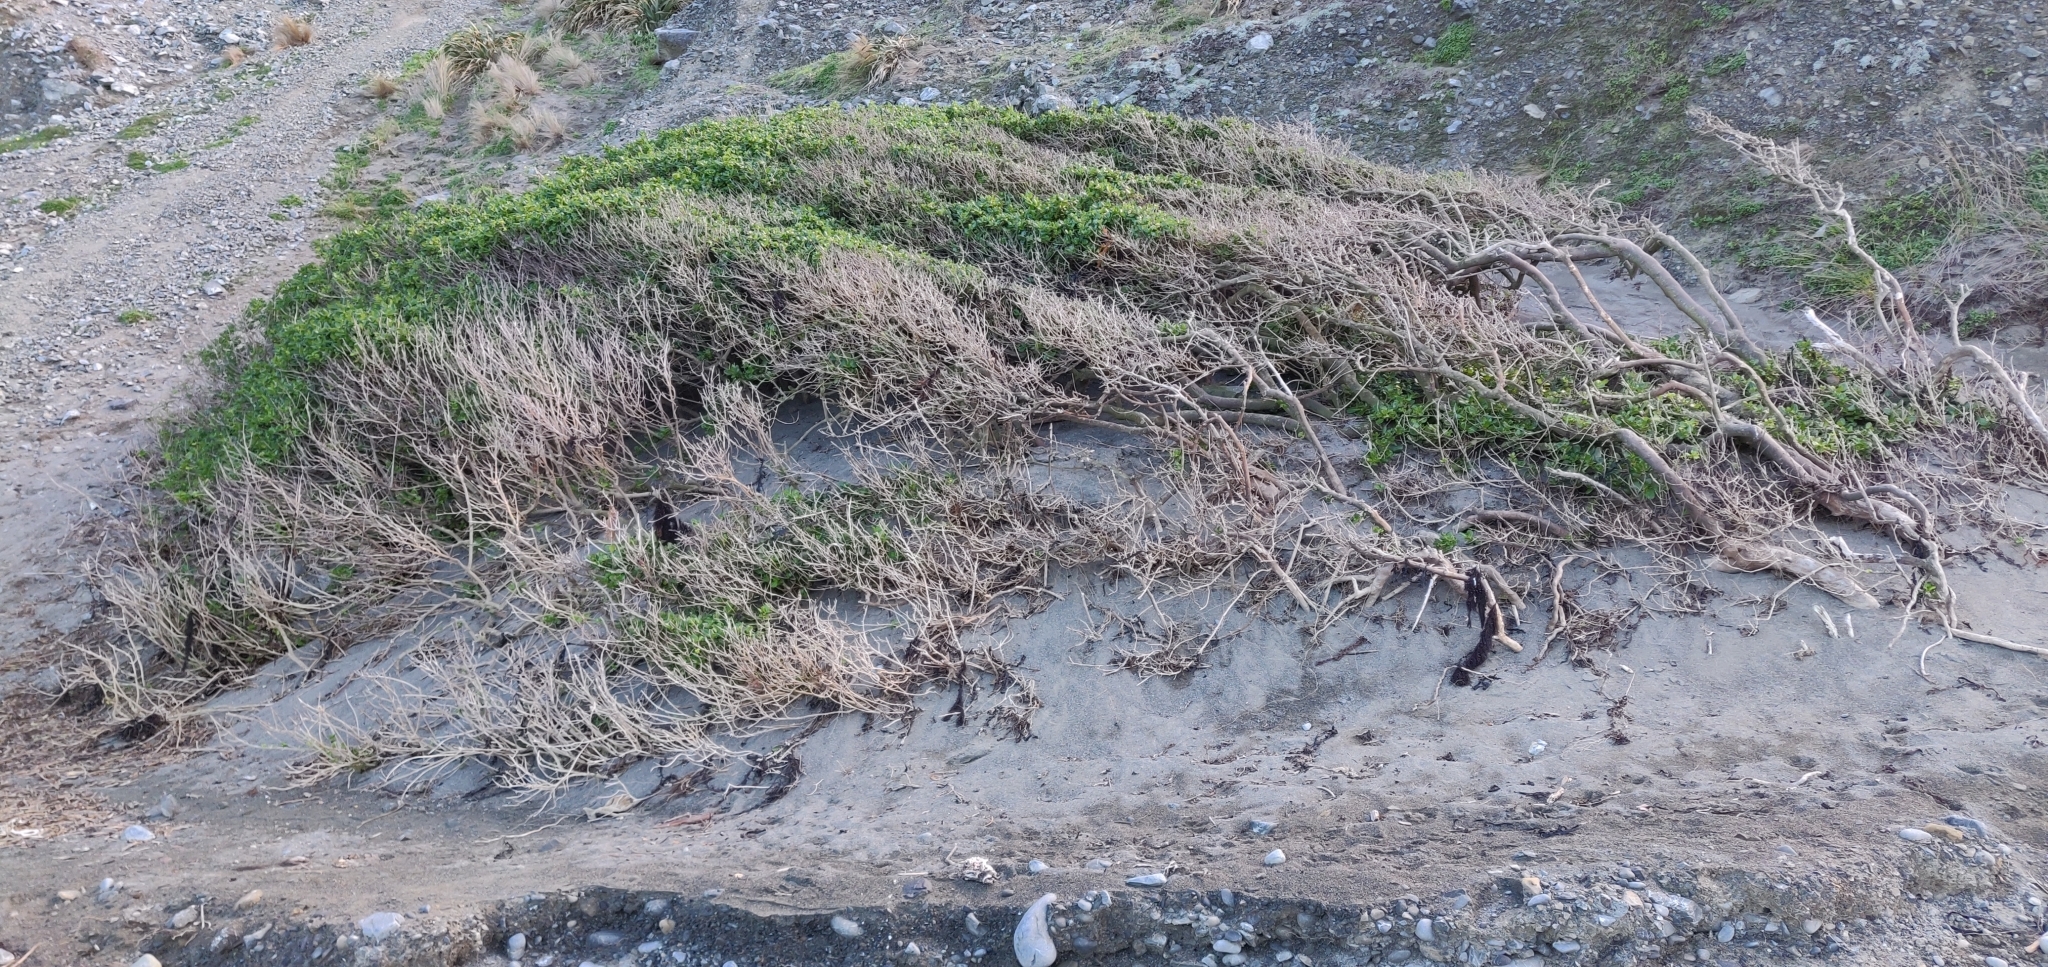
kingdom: Plantae
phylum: Tracheophyta
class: Magnoliopsida
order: Gentianales
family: Rubiaceae
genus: Coprosma
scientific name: Coprosma repens
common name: Tree bedstraw
